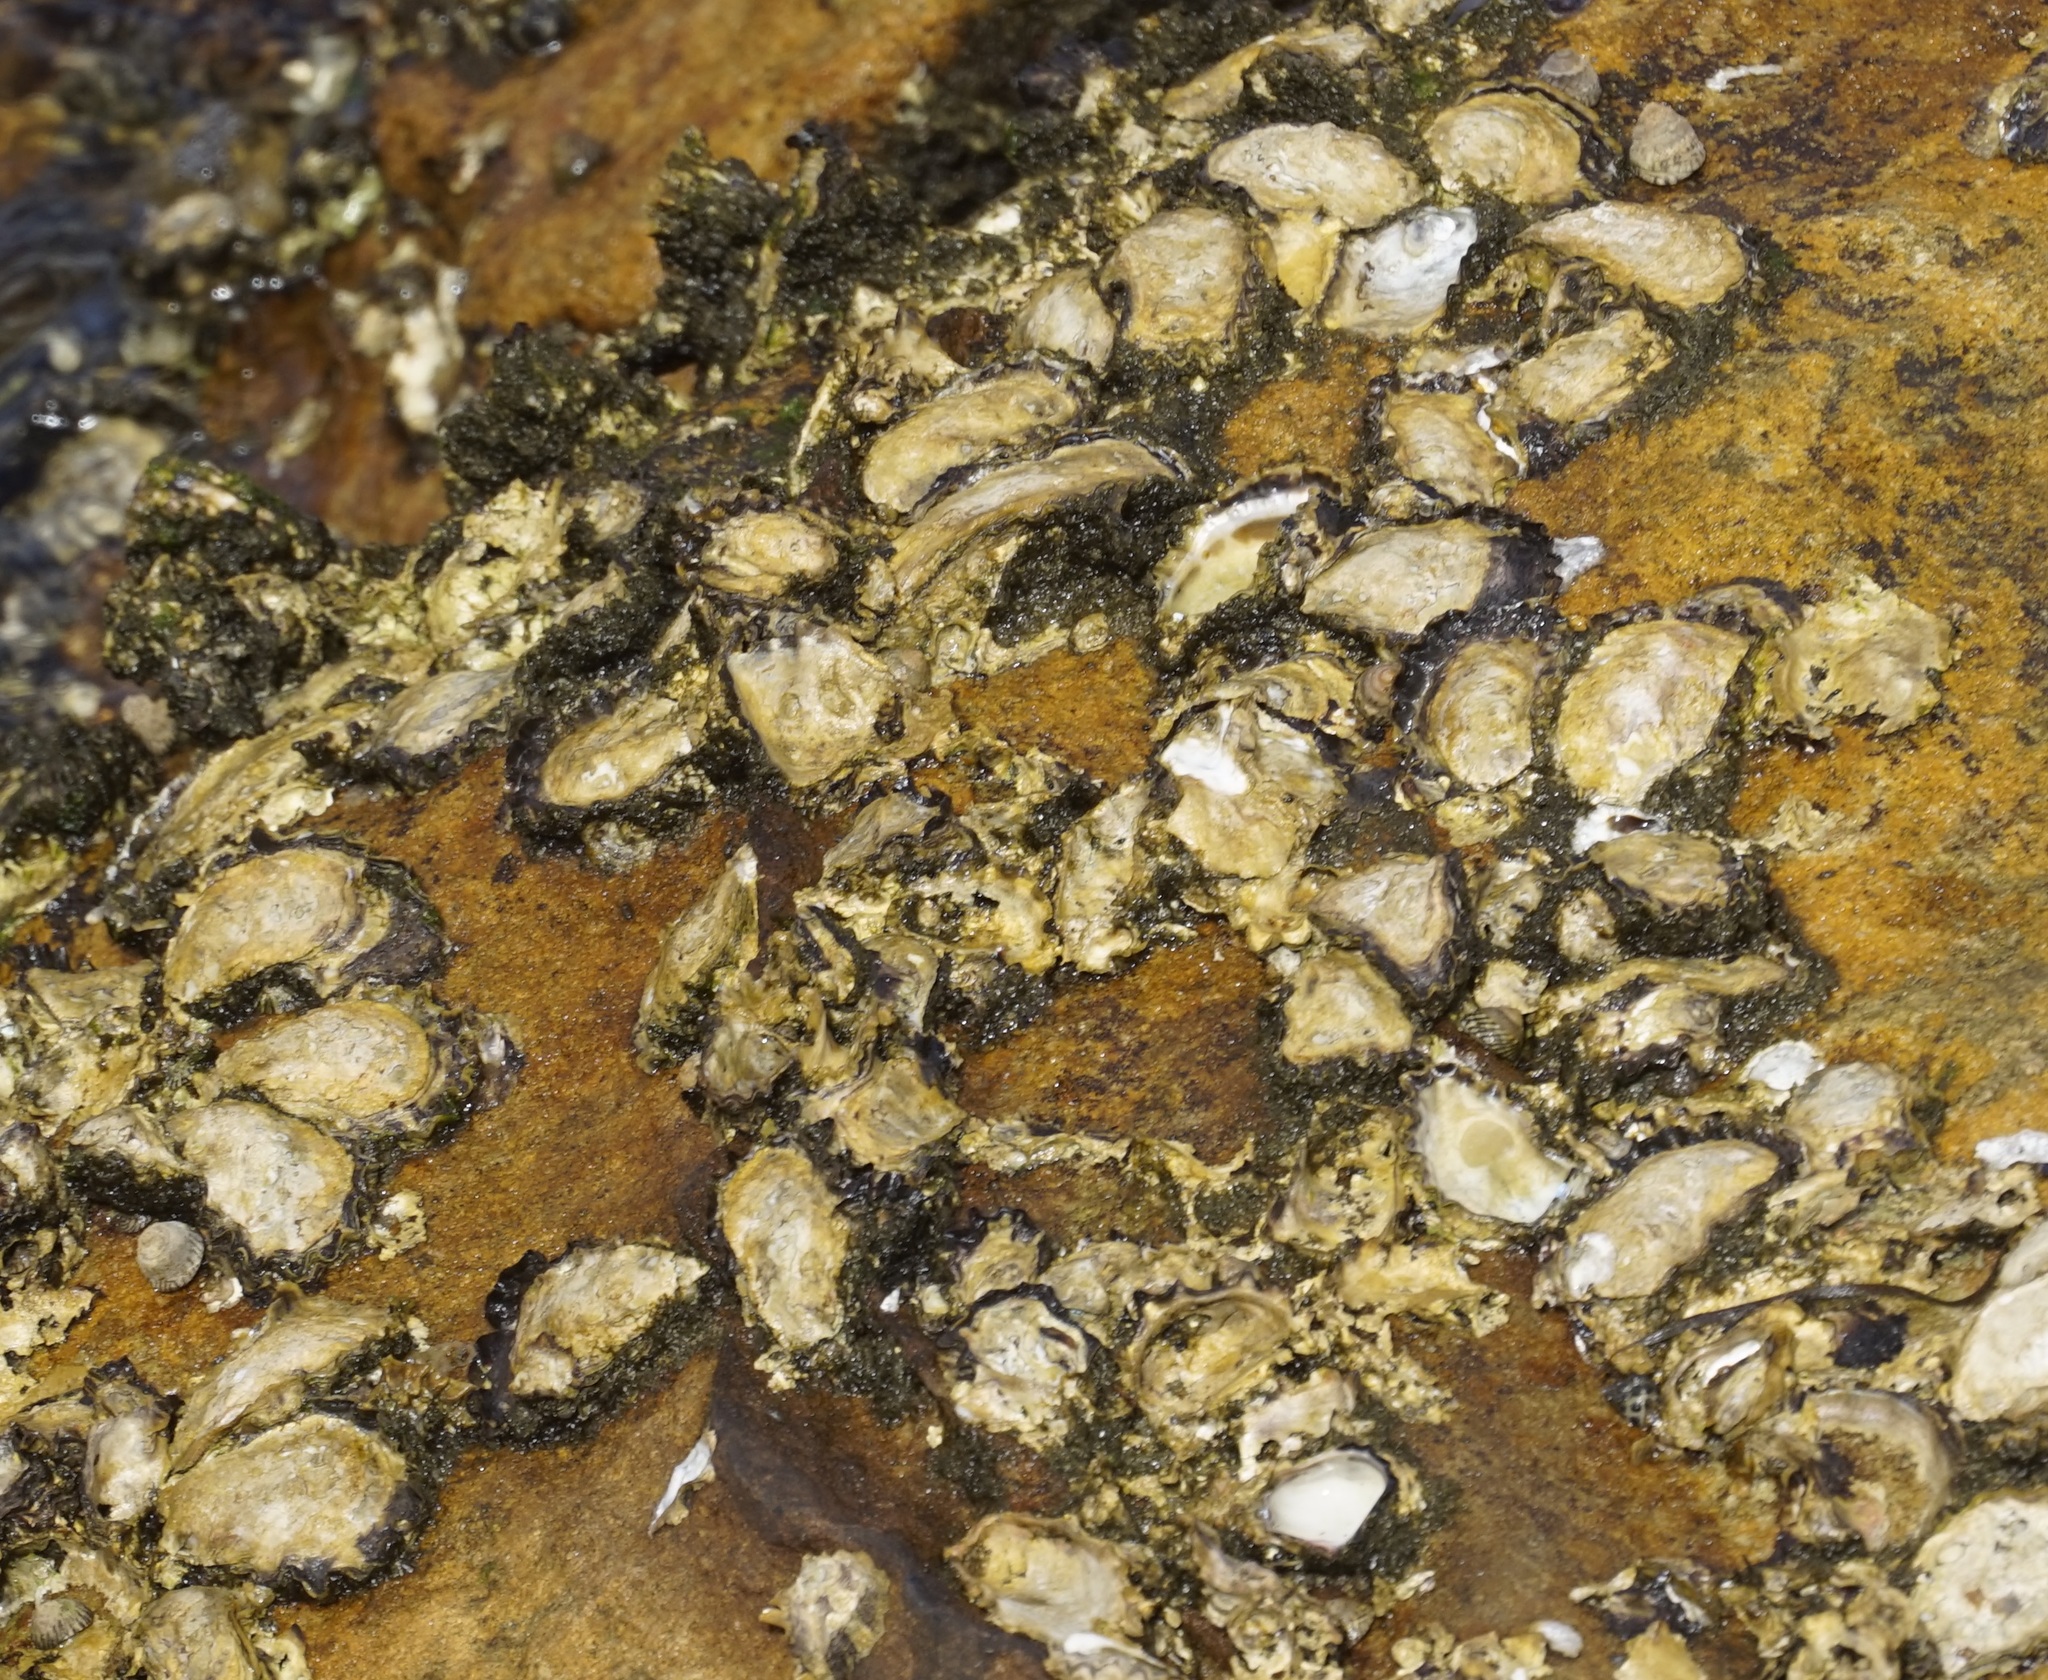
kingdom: Animalia
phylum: Mollusca
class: Bivalvia
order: Ostreida
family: Ostreidae
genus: Saccostrea
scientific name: Saccostrea glomerata
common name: Sydney cupped oyster
